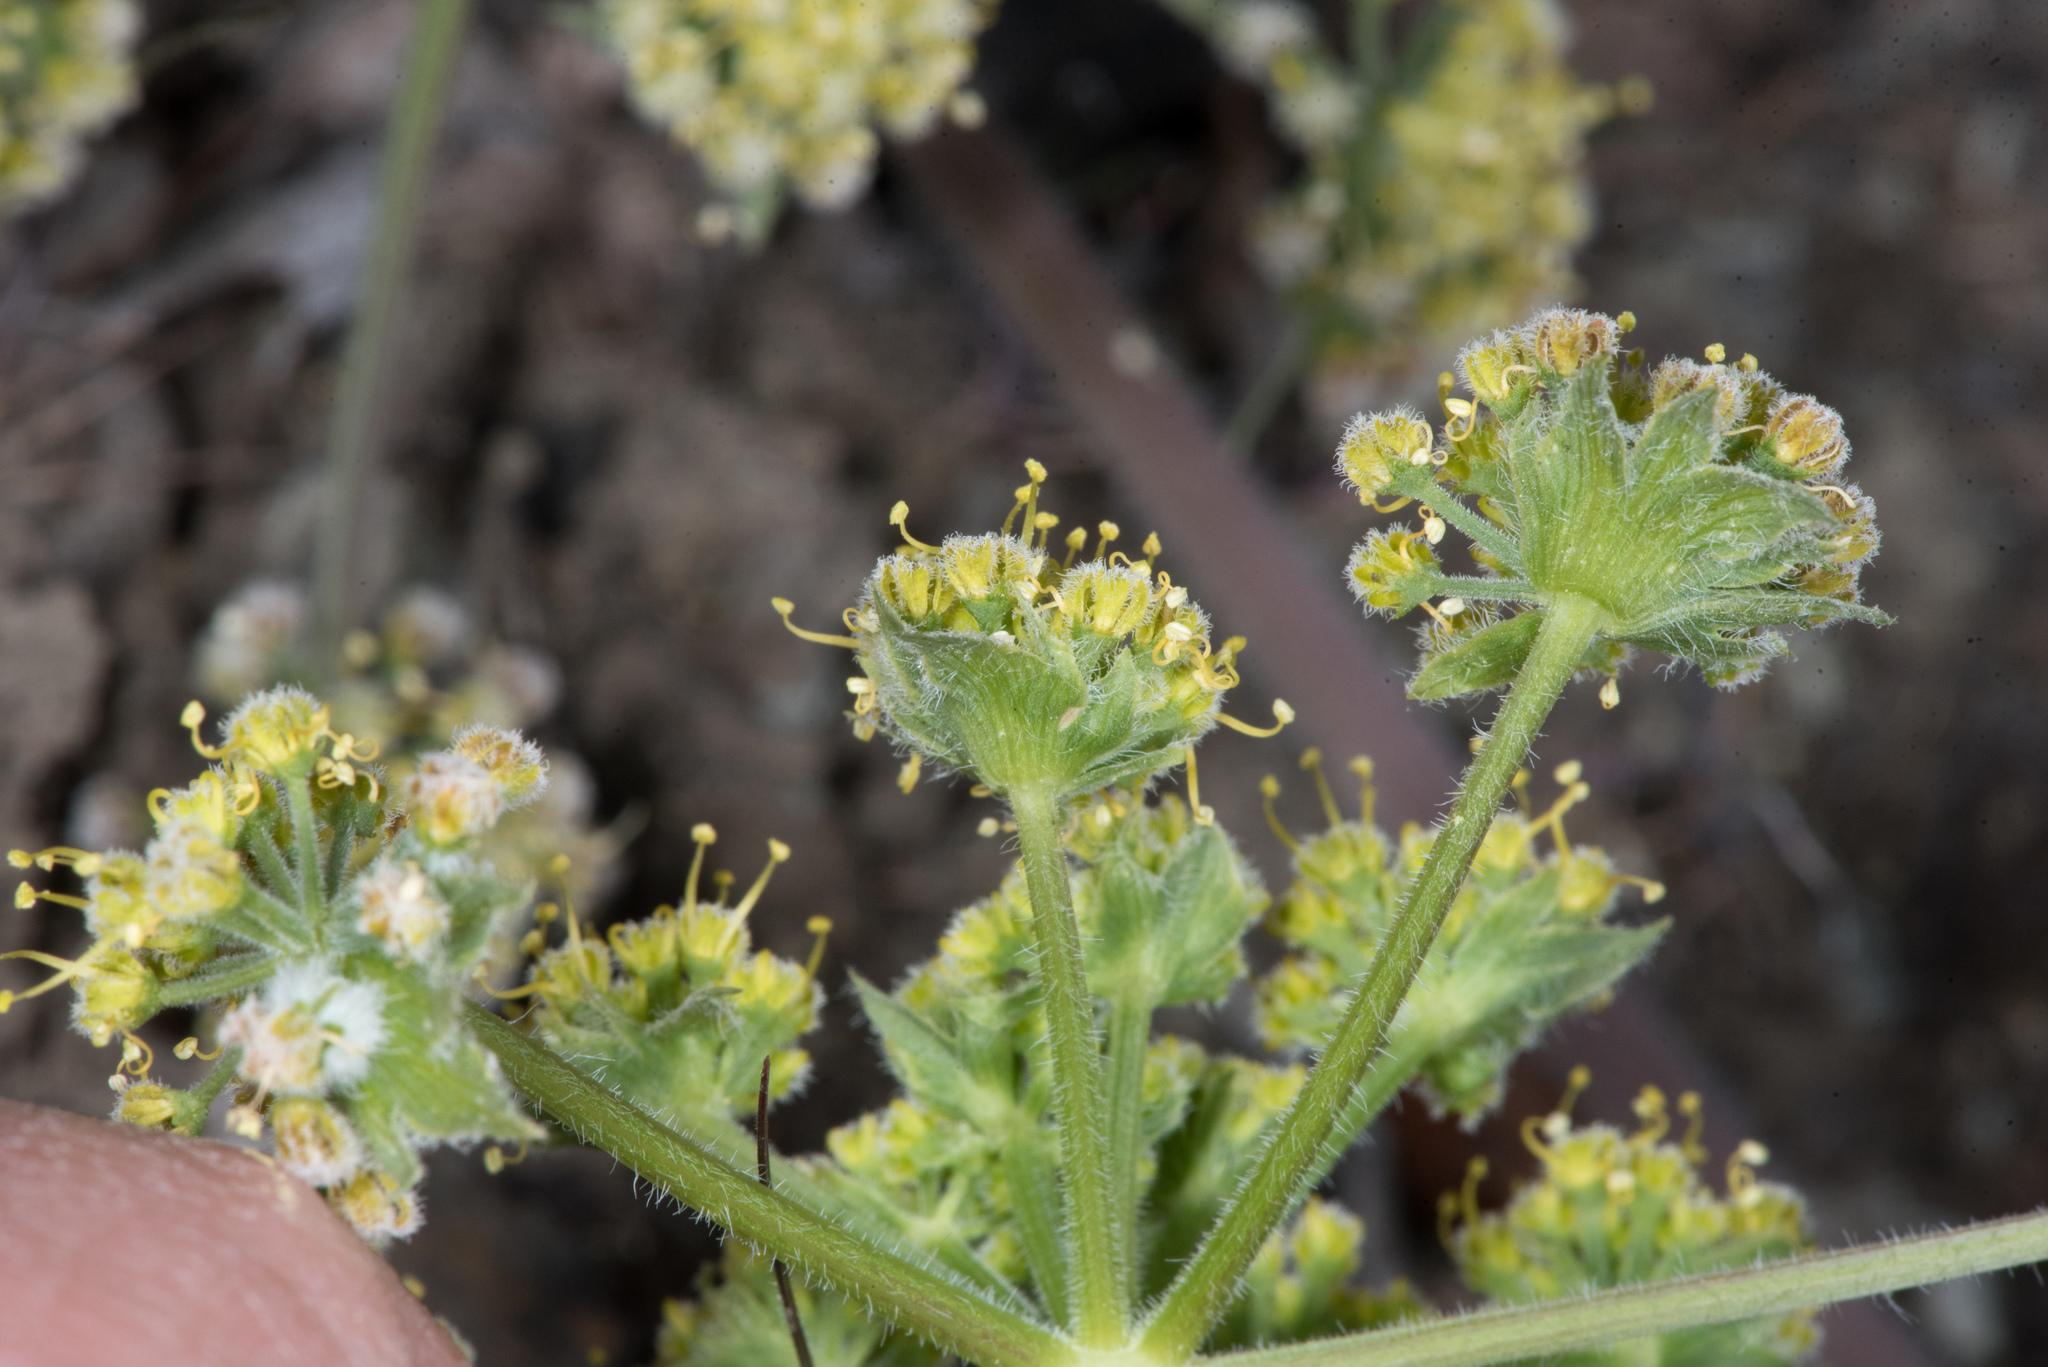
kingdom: Plantae
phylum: Tracheophyta
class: Magnoliopsida
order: Apiales
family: Apiaceae
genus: Lomatium
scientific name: Lomatium dasycarpum
